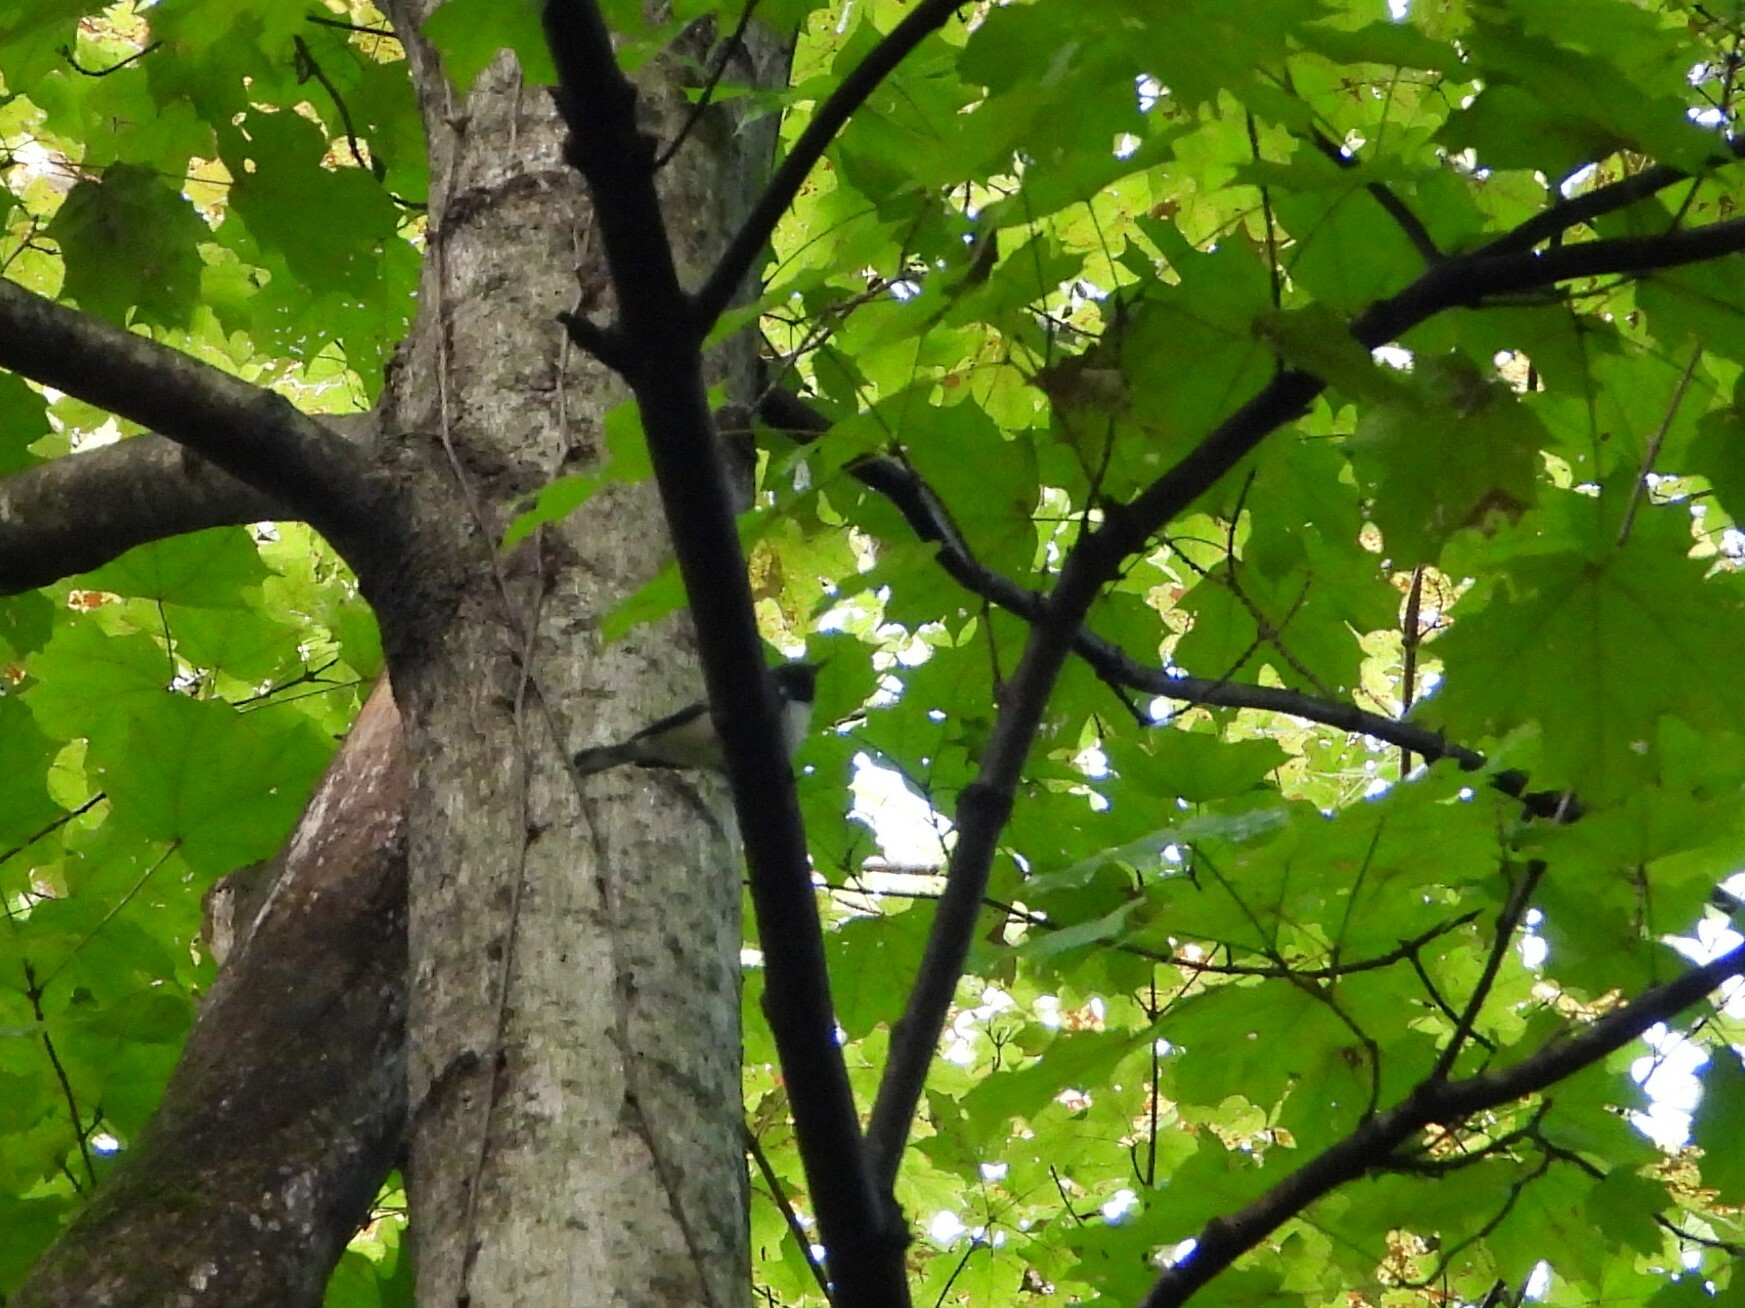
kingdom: Animalia
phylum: Chordata
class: Aves
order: Passeriformes
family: Parulidae
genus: Setophaga
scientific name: Setophaga caerulescens
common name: Black-throated blue warbler
